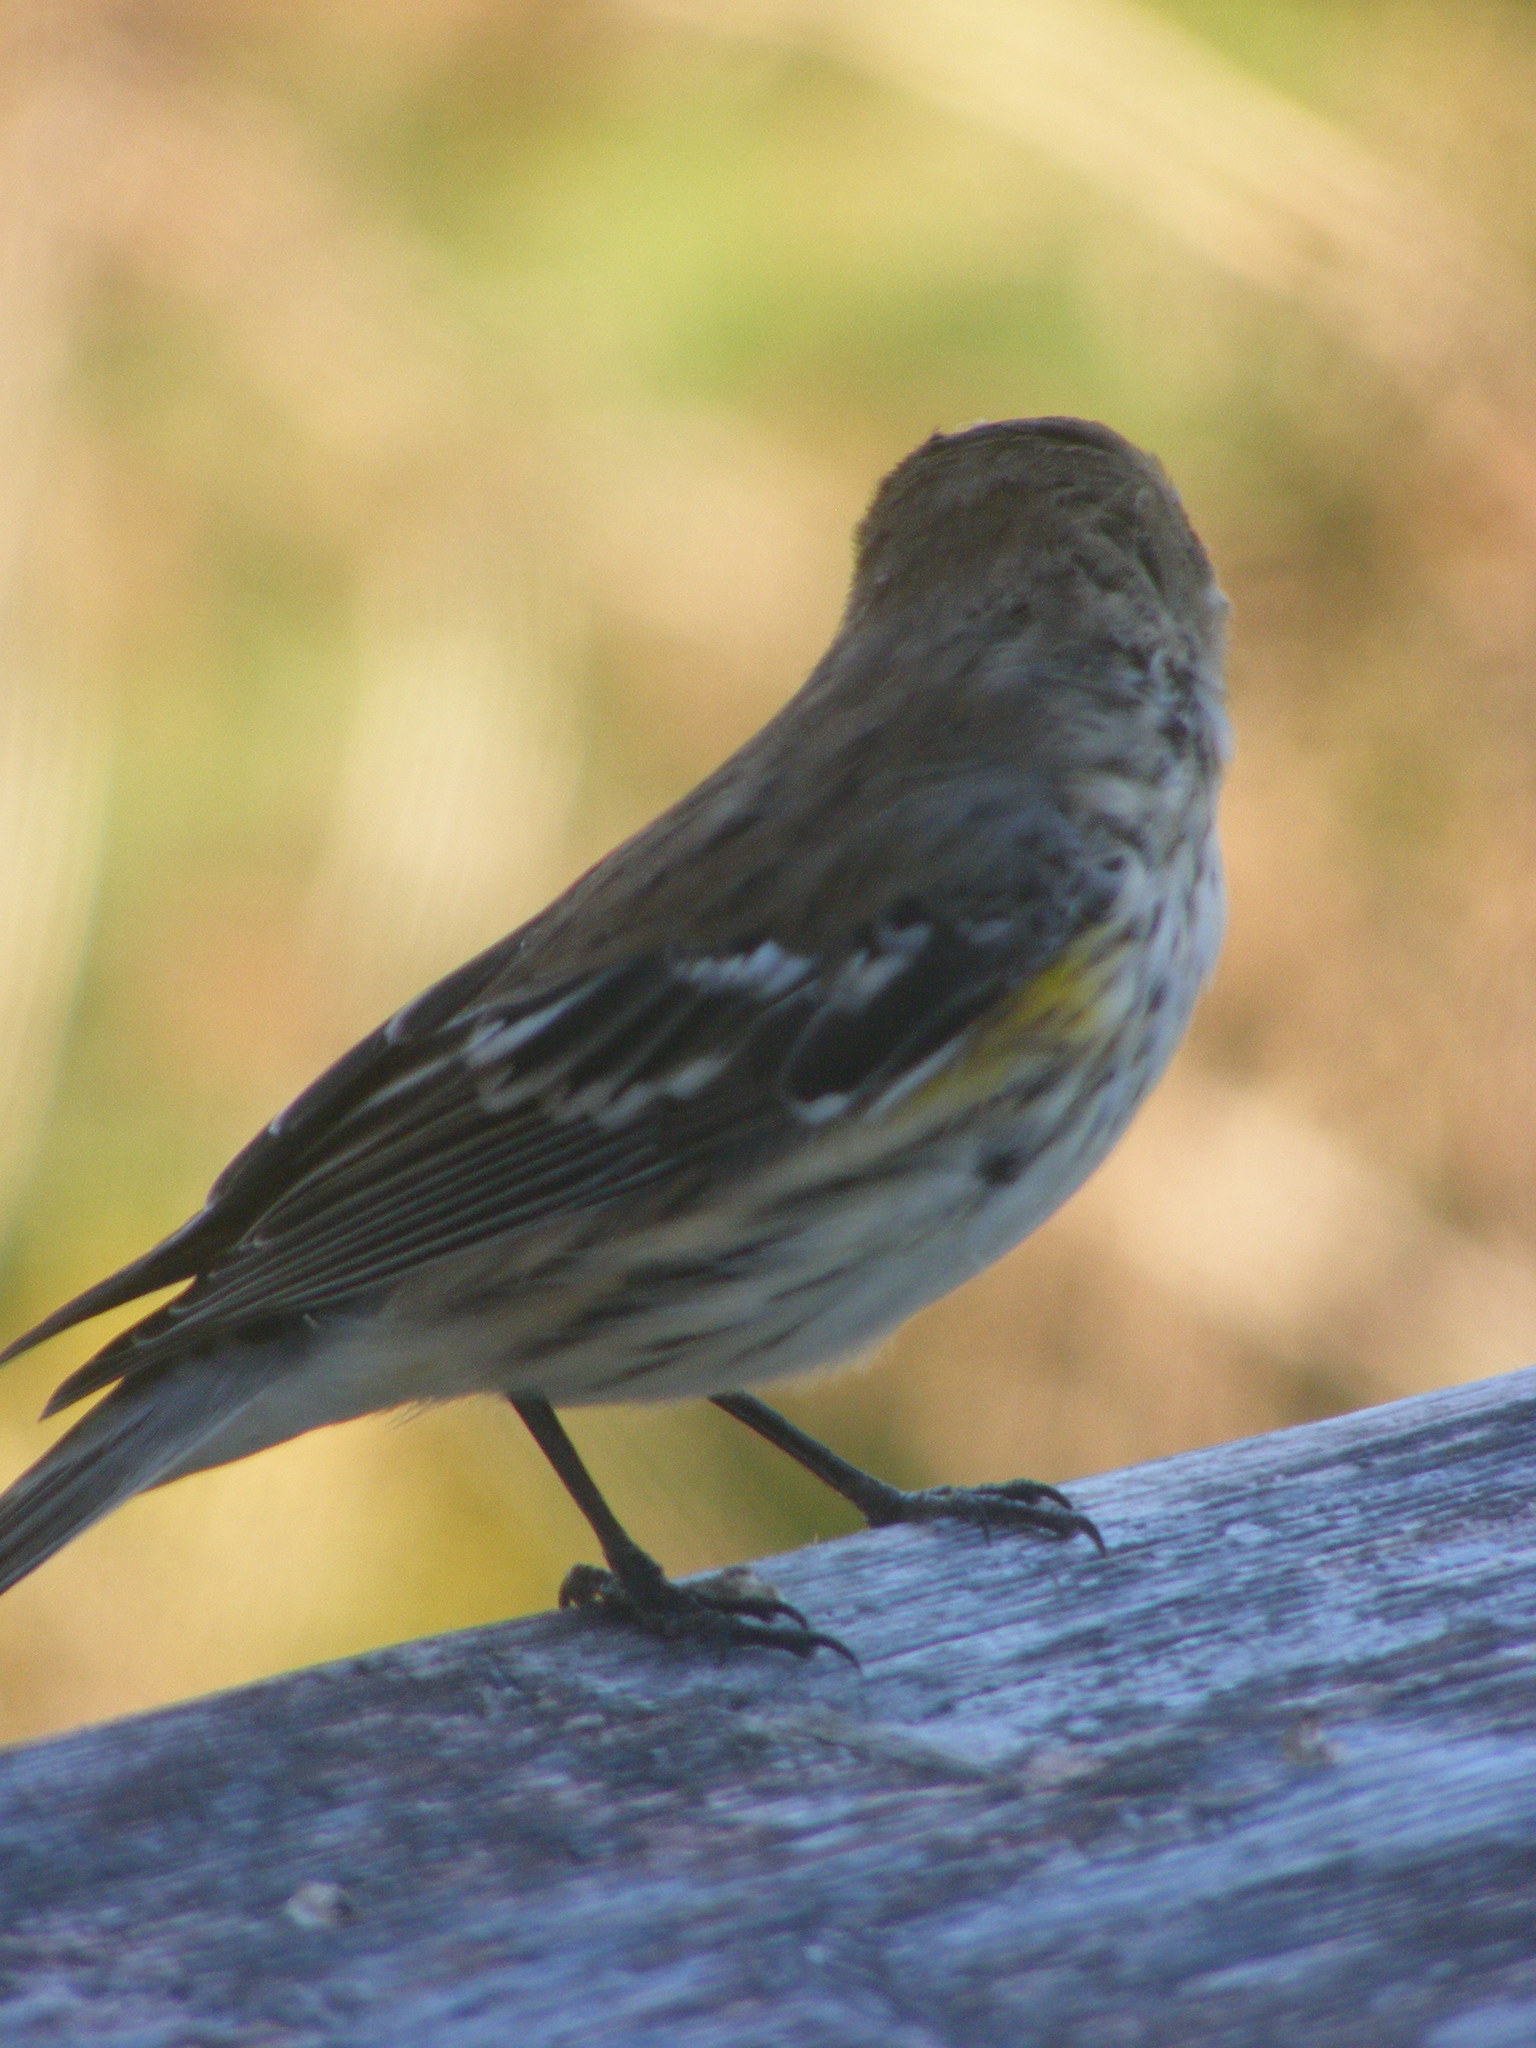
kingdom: Animalia
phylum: Chordata
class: Aves
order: Passeriformes
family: Parulidae
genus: Setophaga
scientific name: Setophaga coronata
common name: Myrtle warbler
